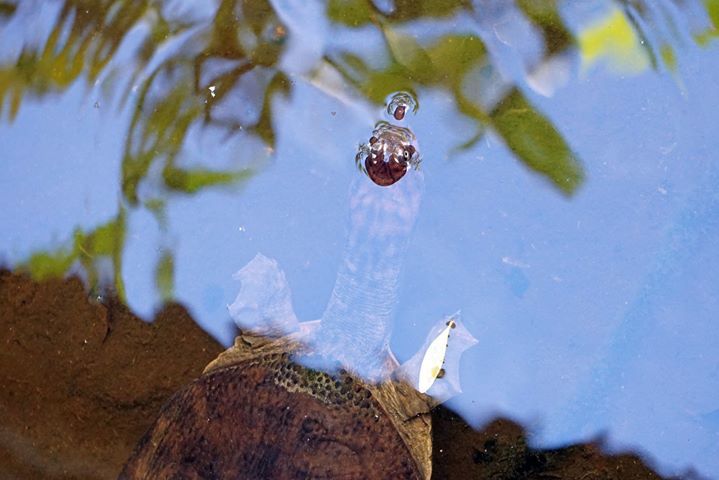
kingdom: Animalia
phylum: Chordata
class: Testudines
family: Trionychidae
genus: Apalone
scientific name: Apalone ferox
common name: Florida softshell turtle
